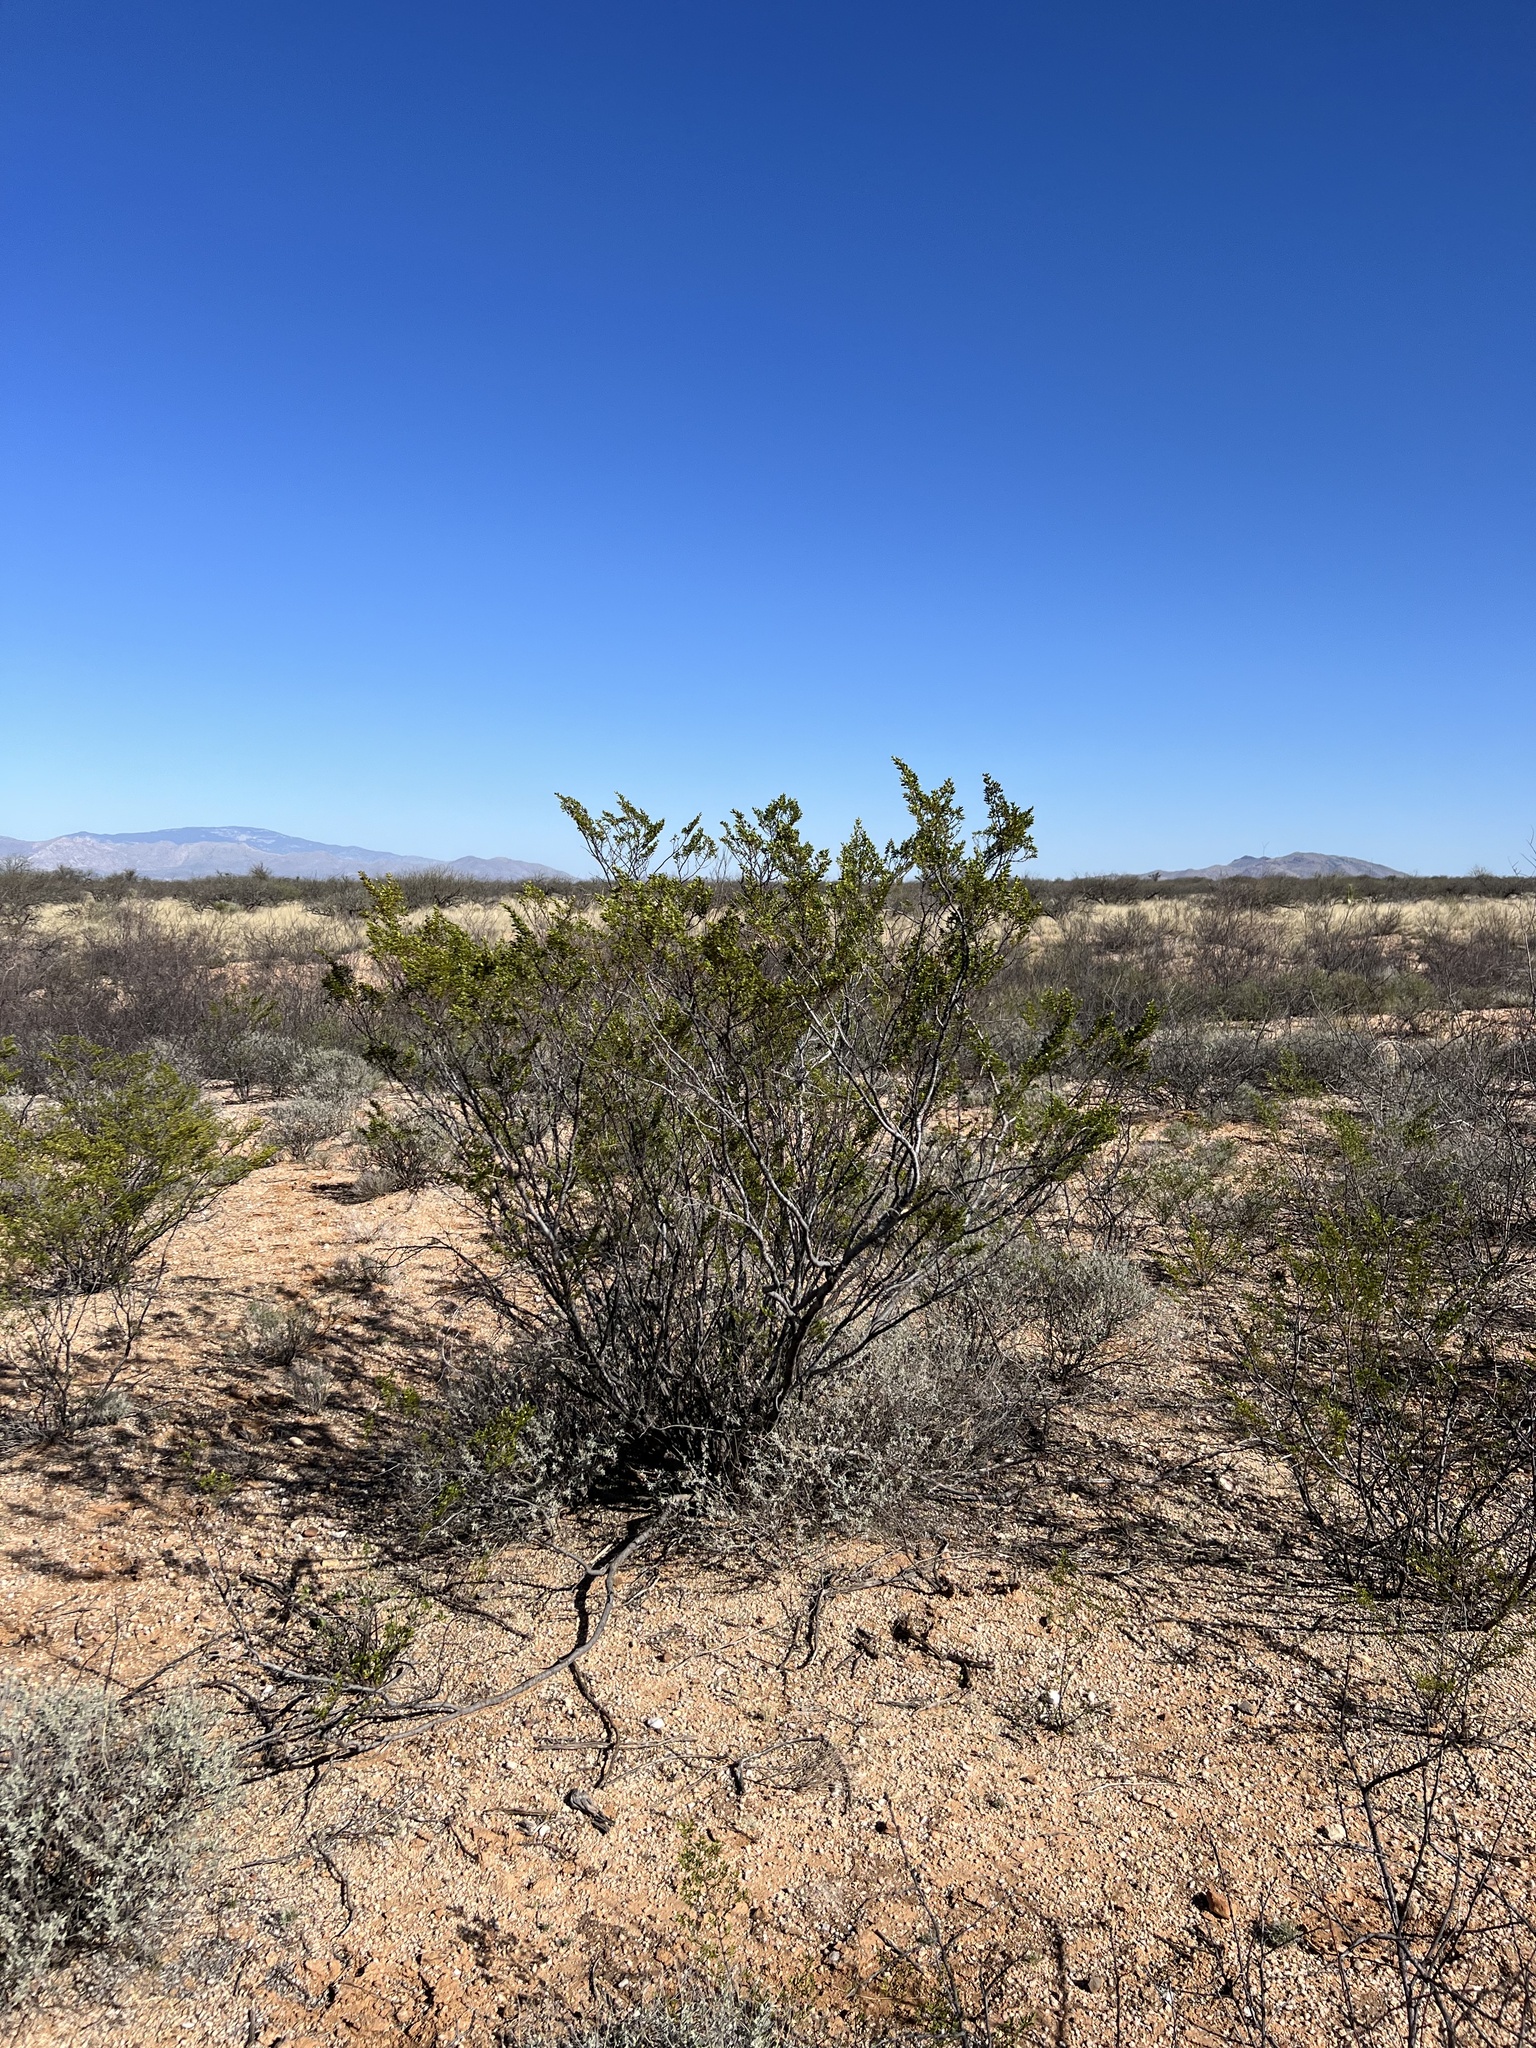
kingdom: Plantae
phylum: Tracheophyta
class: Magnoliopsida
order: Zygophyllales
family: Zygophyllaceae
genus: Larrea
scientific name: Larrea tridentata
